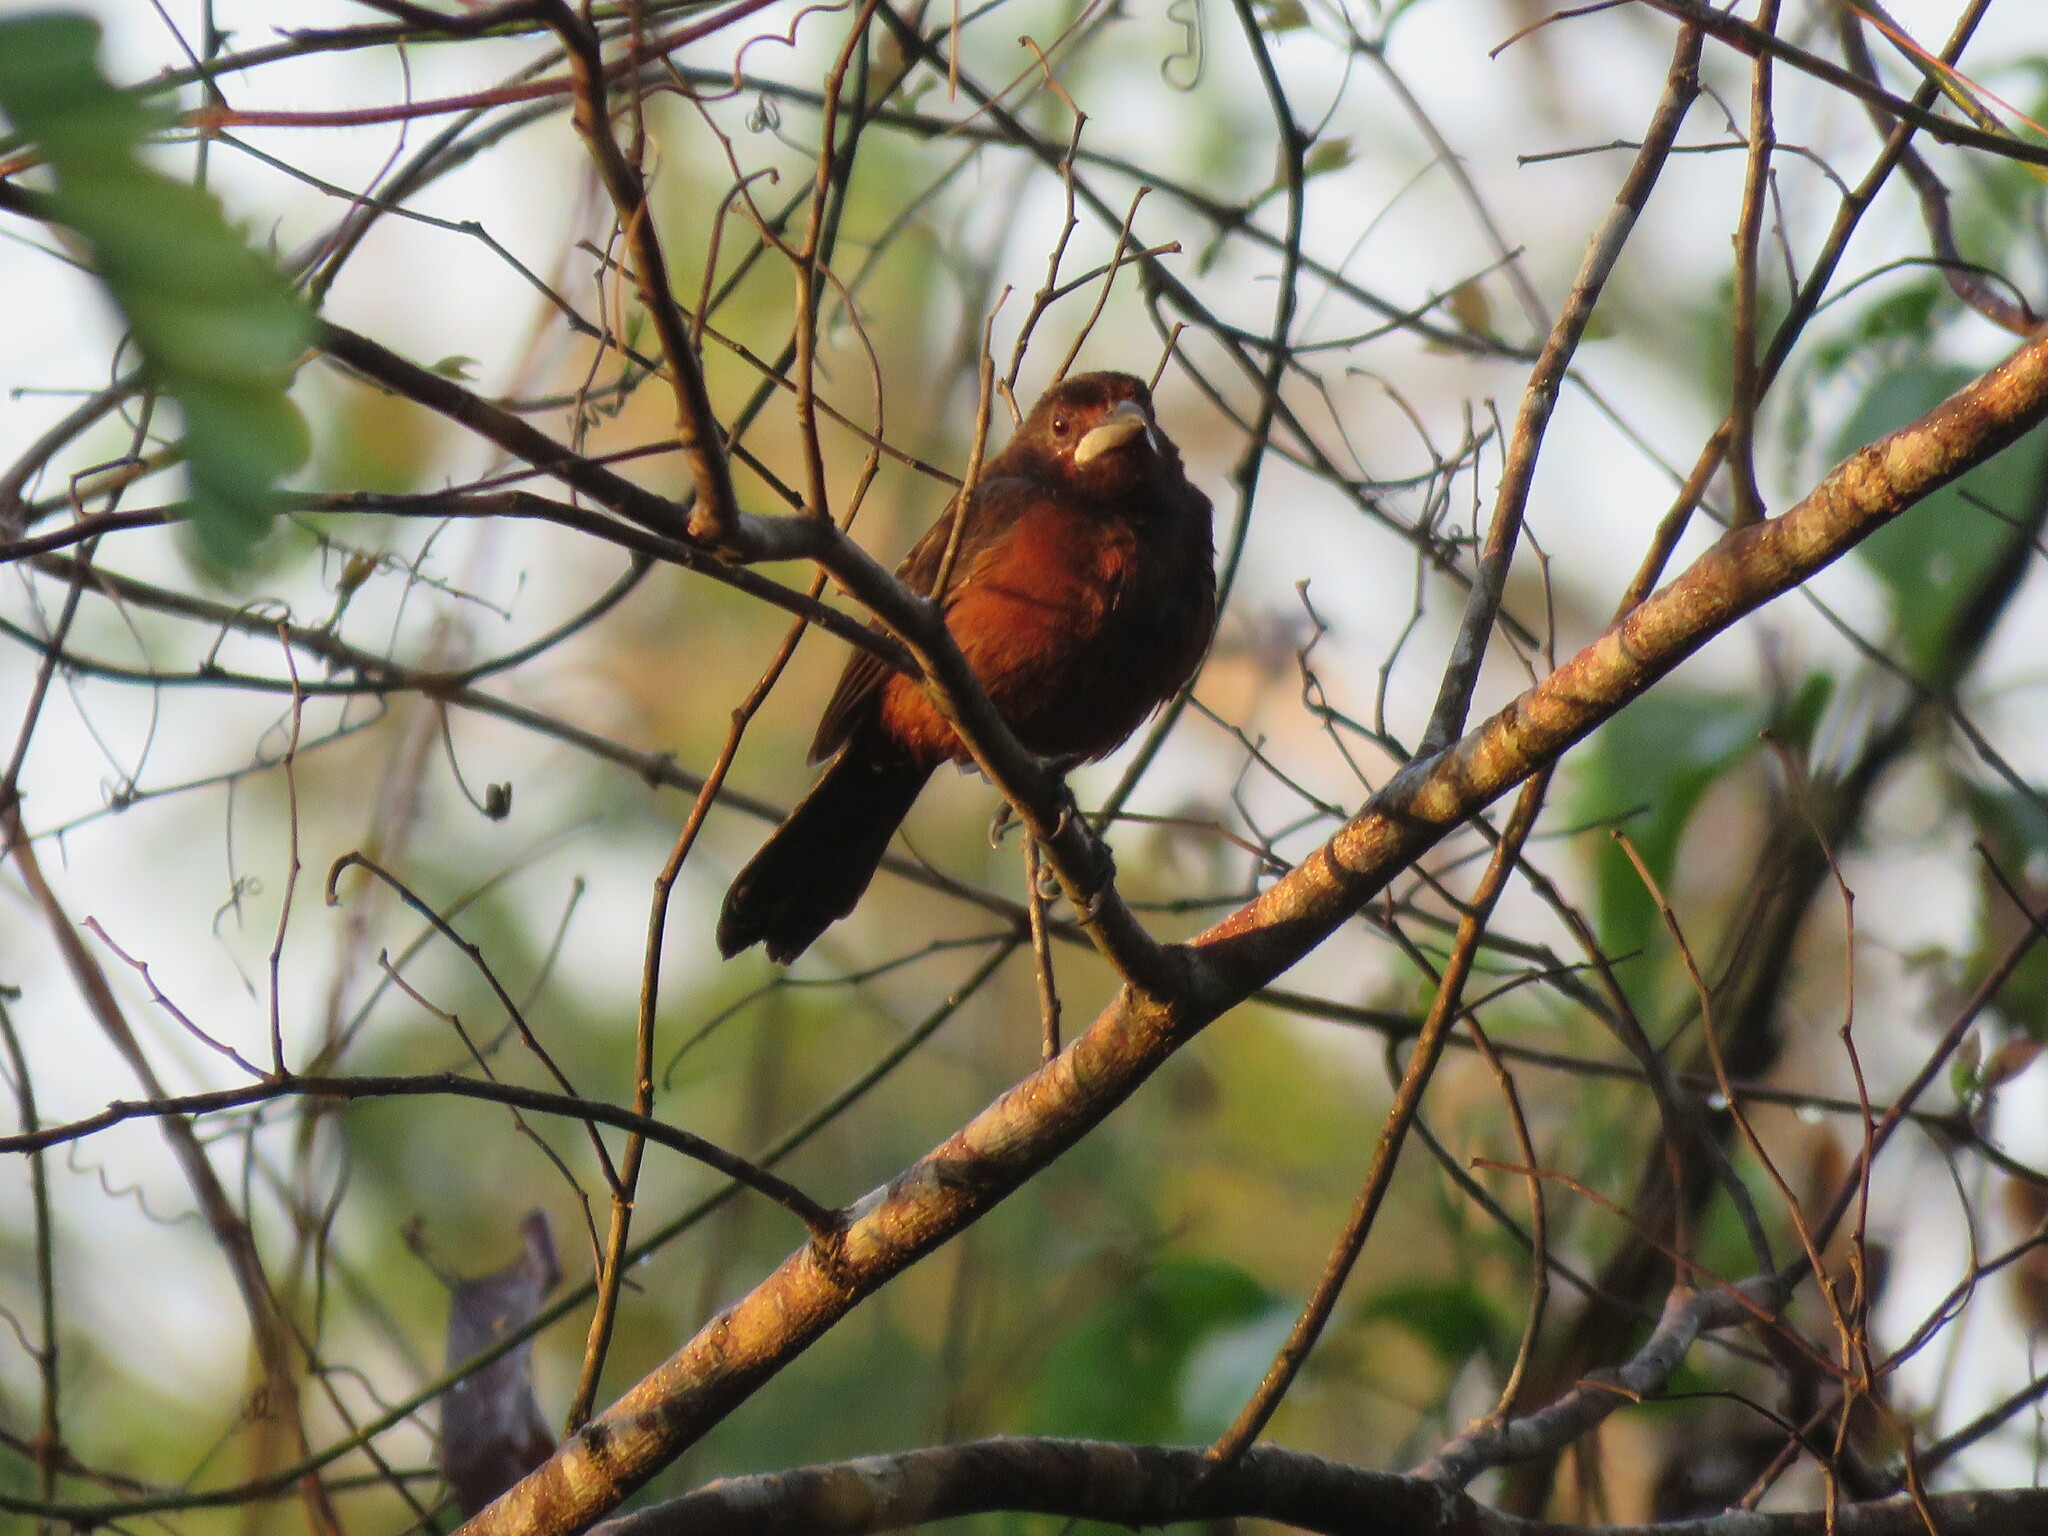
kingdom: Animalia
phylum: Chordata
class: Aves
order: Passeriformes
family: Thraupidae
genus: Ramphocelus
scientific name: Ramphocelus carbo
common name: Silver-beaked tanager
